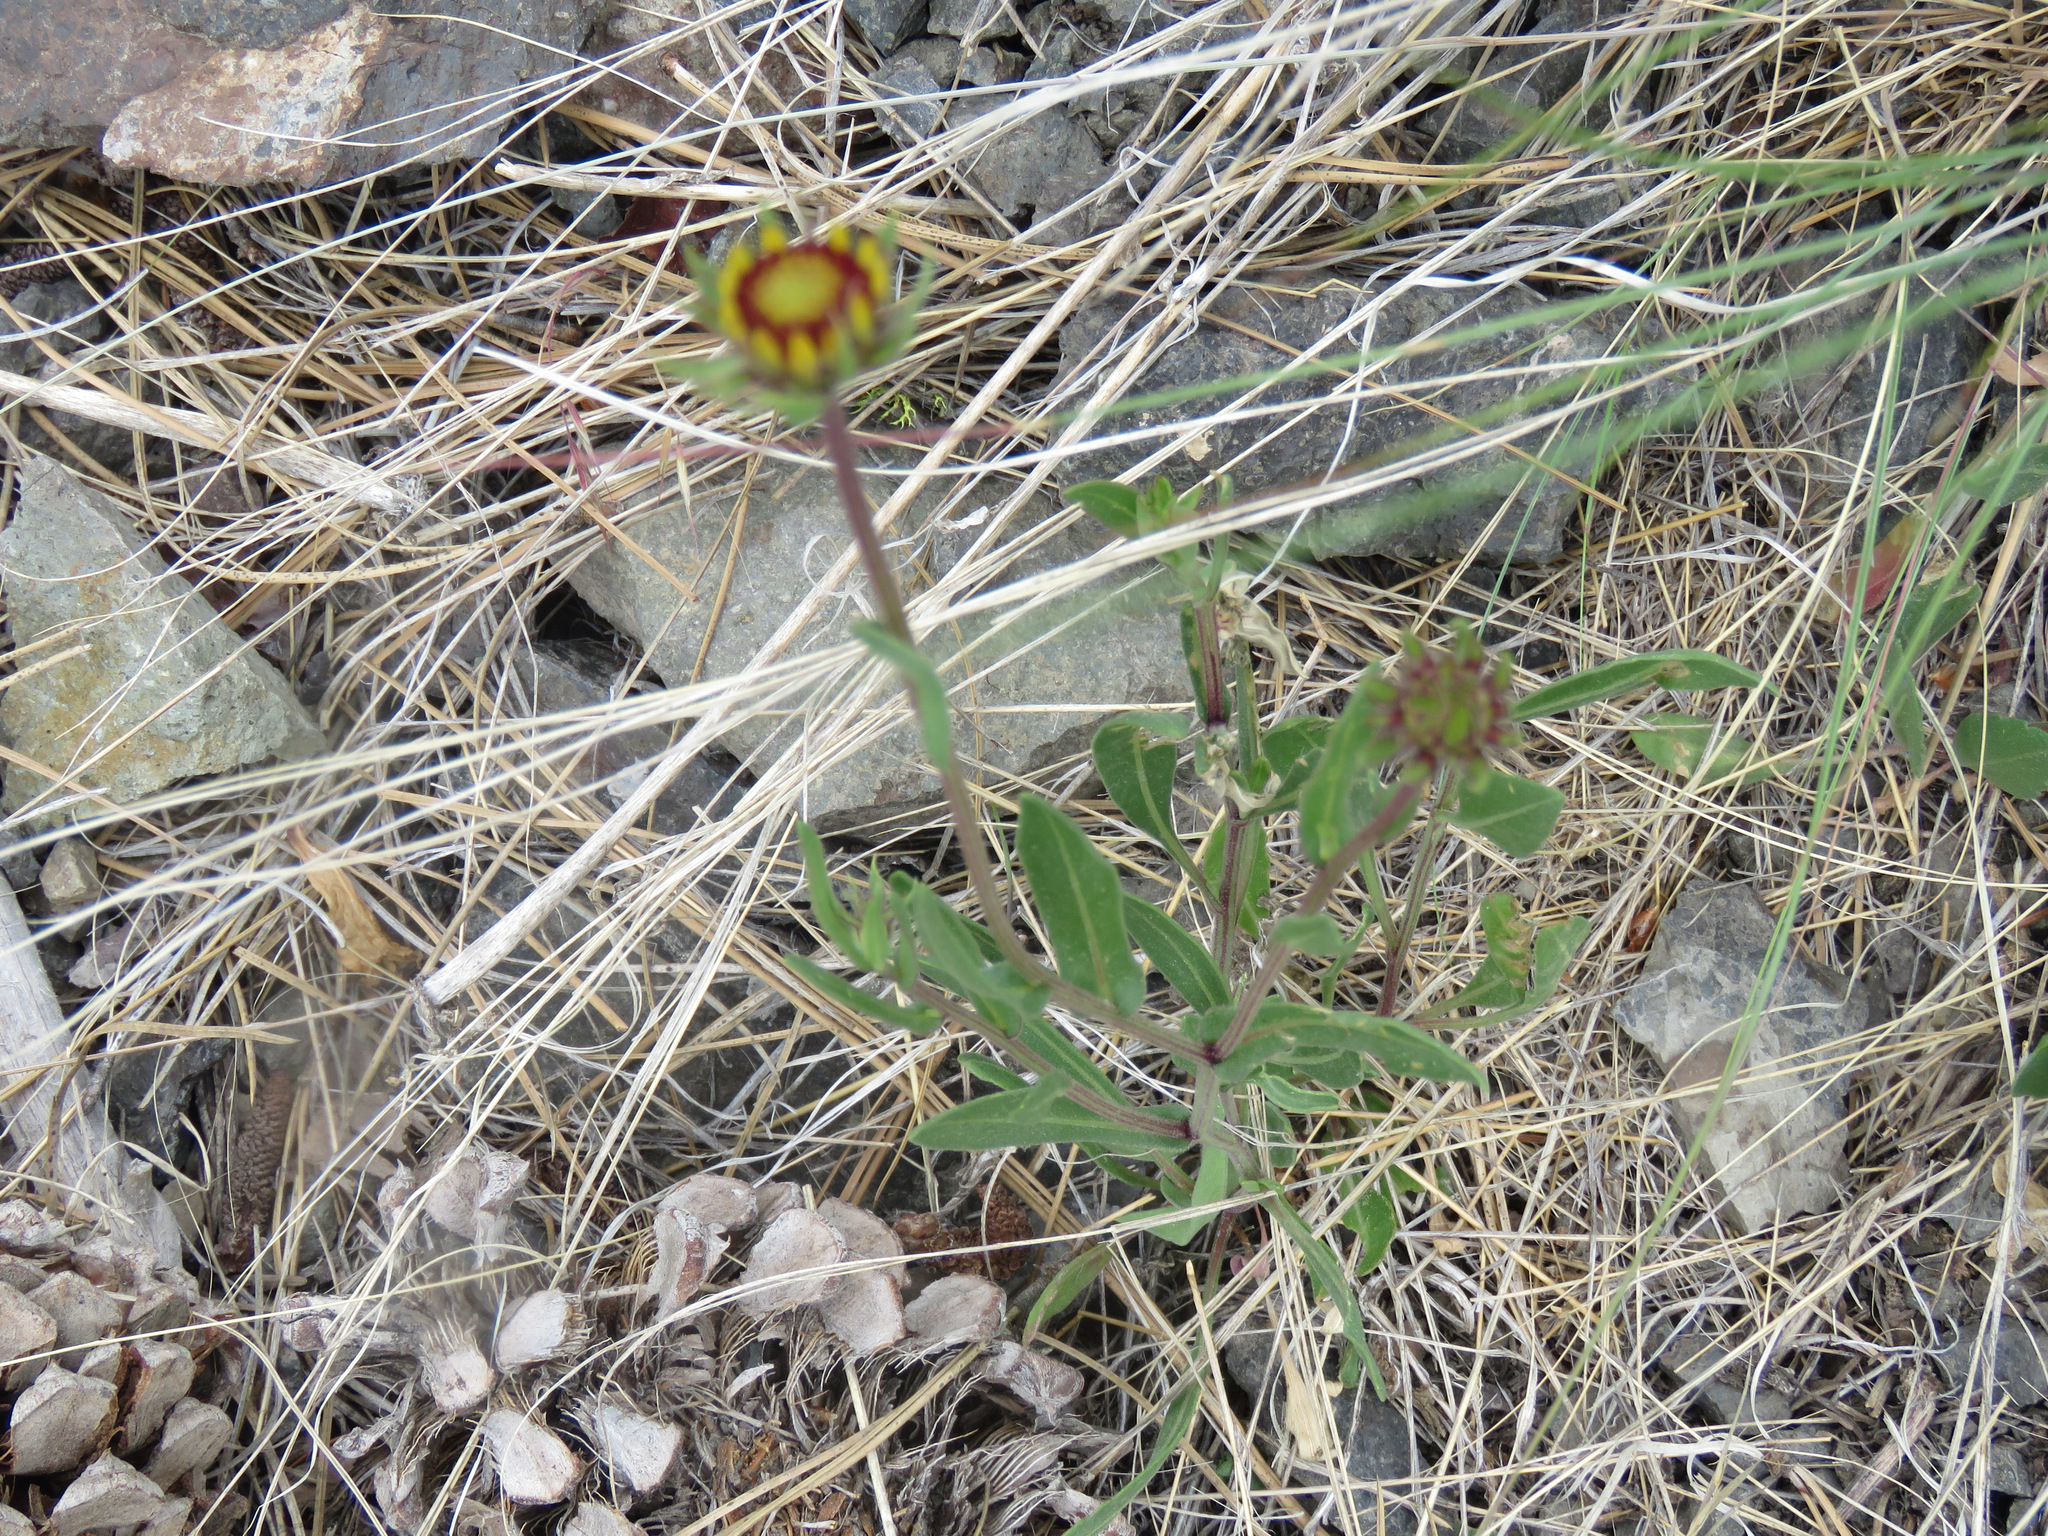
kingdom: Plantae
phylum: Tracheophyta
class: Magnoliopsida
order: Asterales
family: Asteraceae
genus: Gaillardia
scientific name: Gaillardia aristata
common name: Blanket-flower
